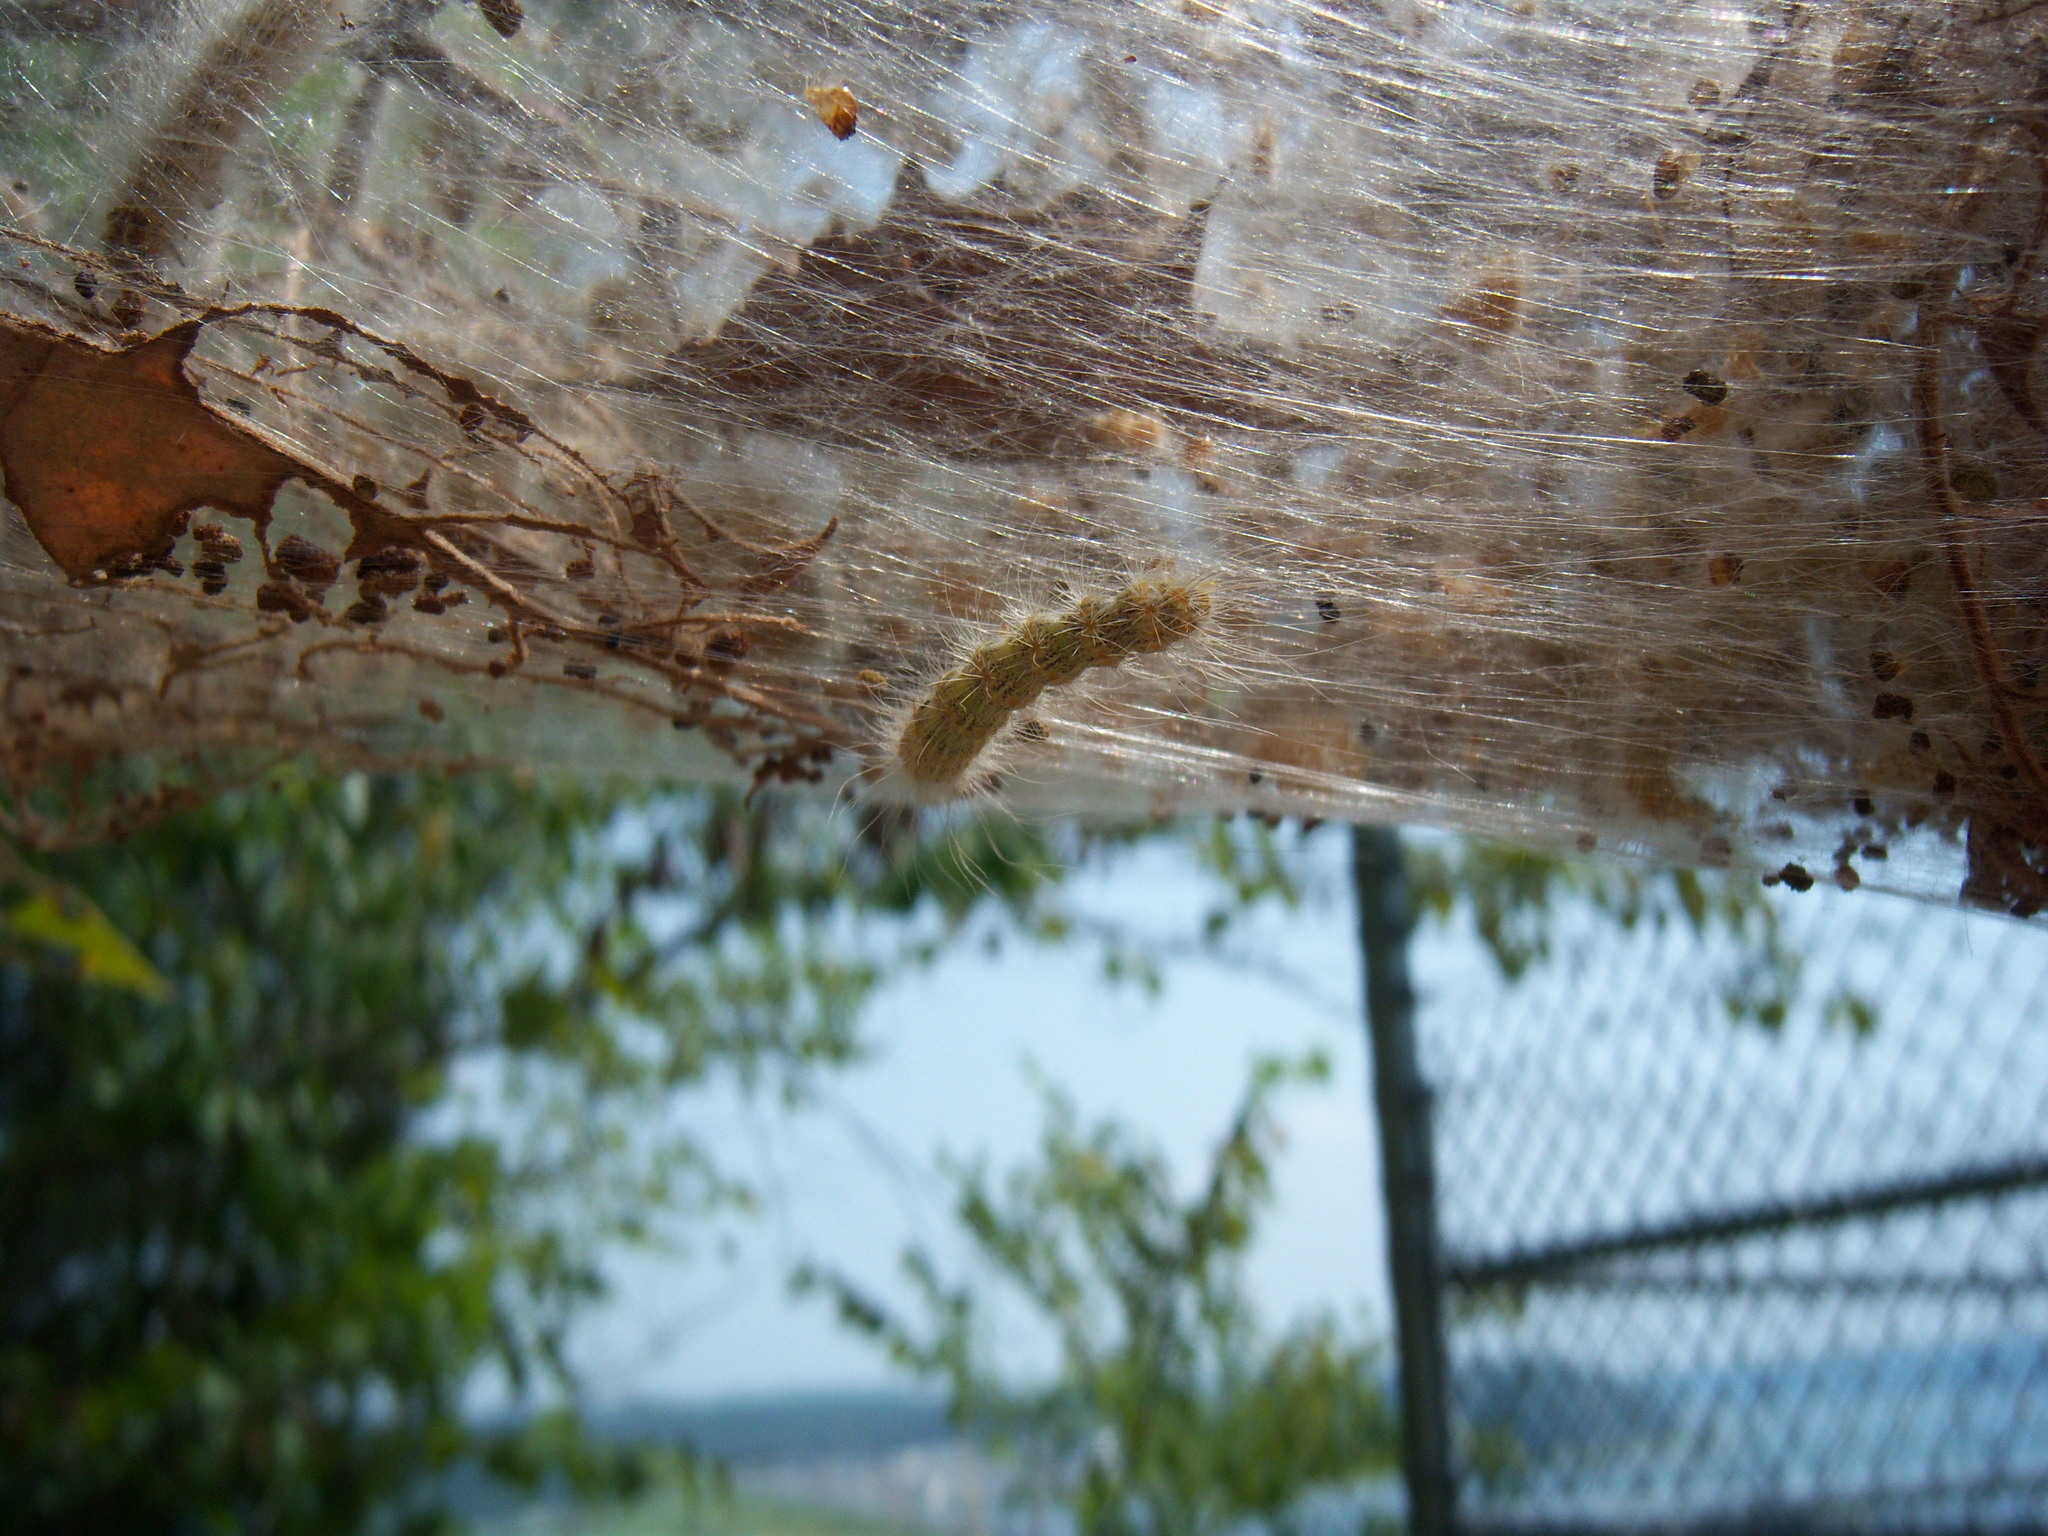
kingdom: Animalia
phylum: Arthropoda
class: Insecta
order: Lepidoptera
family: Erebidae
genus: Hyphantria
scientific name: Hyphantria cunea
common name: American white moth
